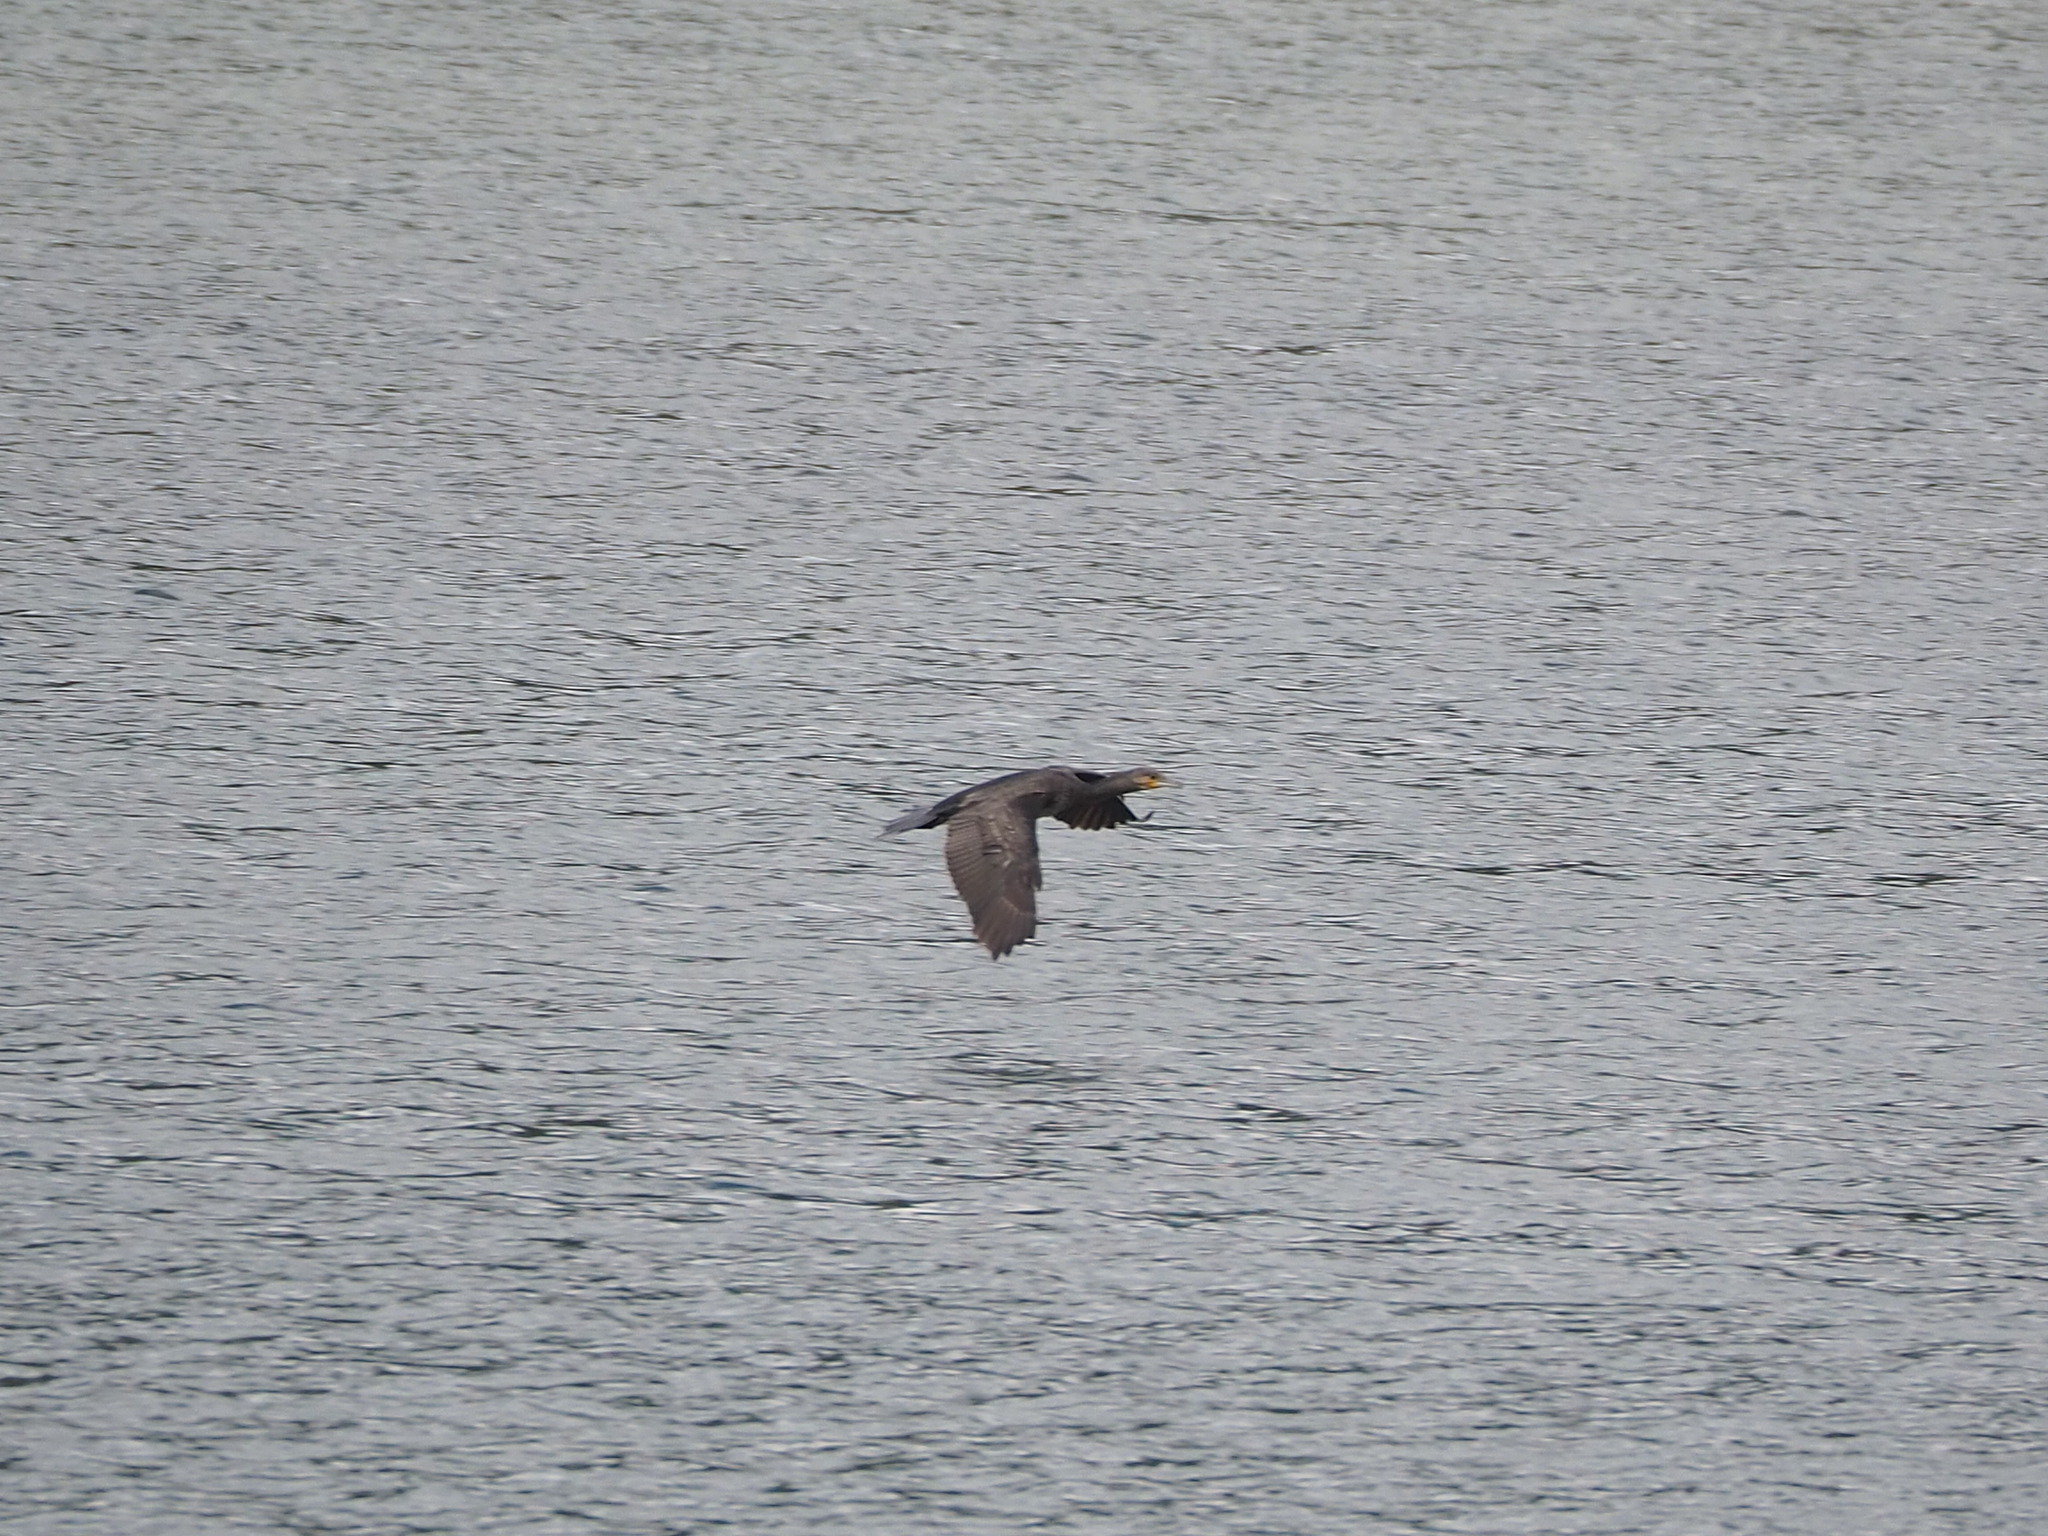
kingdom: Animalia
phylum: Chordata
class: Aves
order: Suliformes
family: Phalacrocoracidae
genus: Phalacrocorax
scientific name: Phalacrocorax carbo
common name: Great cormorant
